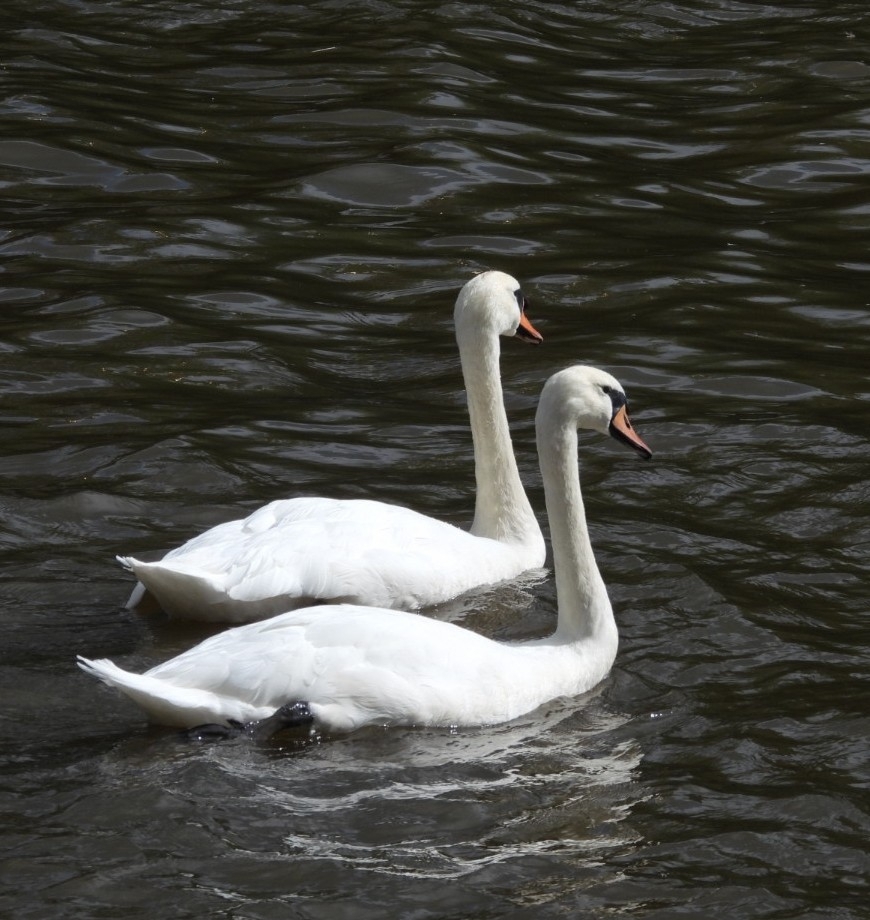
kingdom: Animalia
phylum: Chordata
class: Aves
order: Anseriformes
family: Anatidae
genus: Cygnus
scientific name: Cygnus olor
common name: Mute swan
